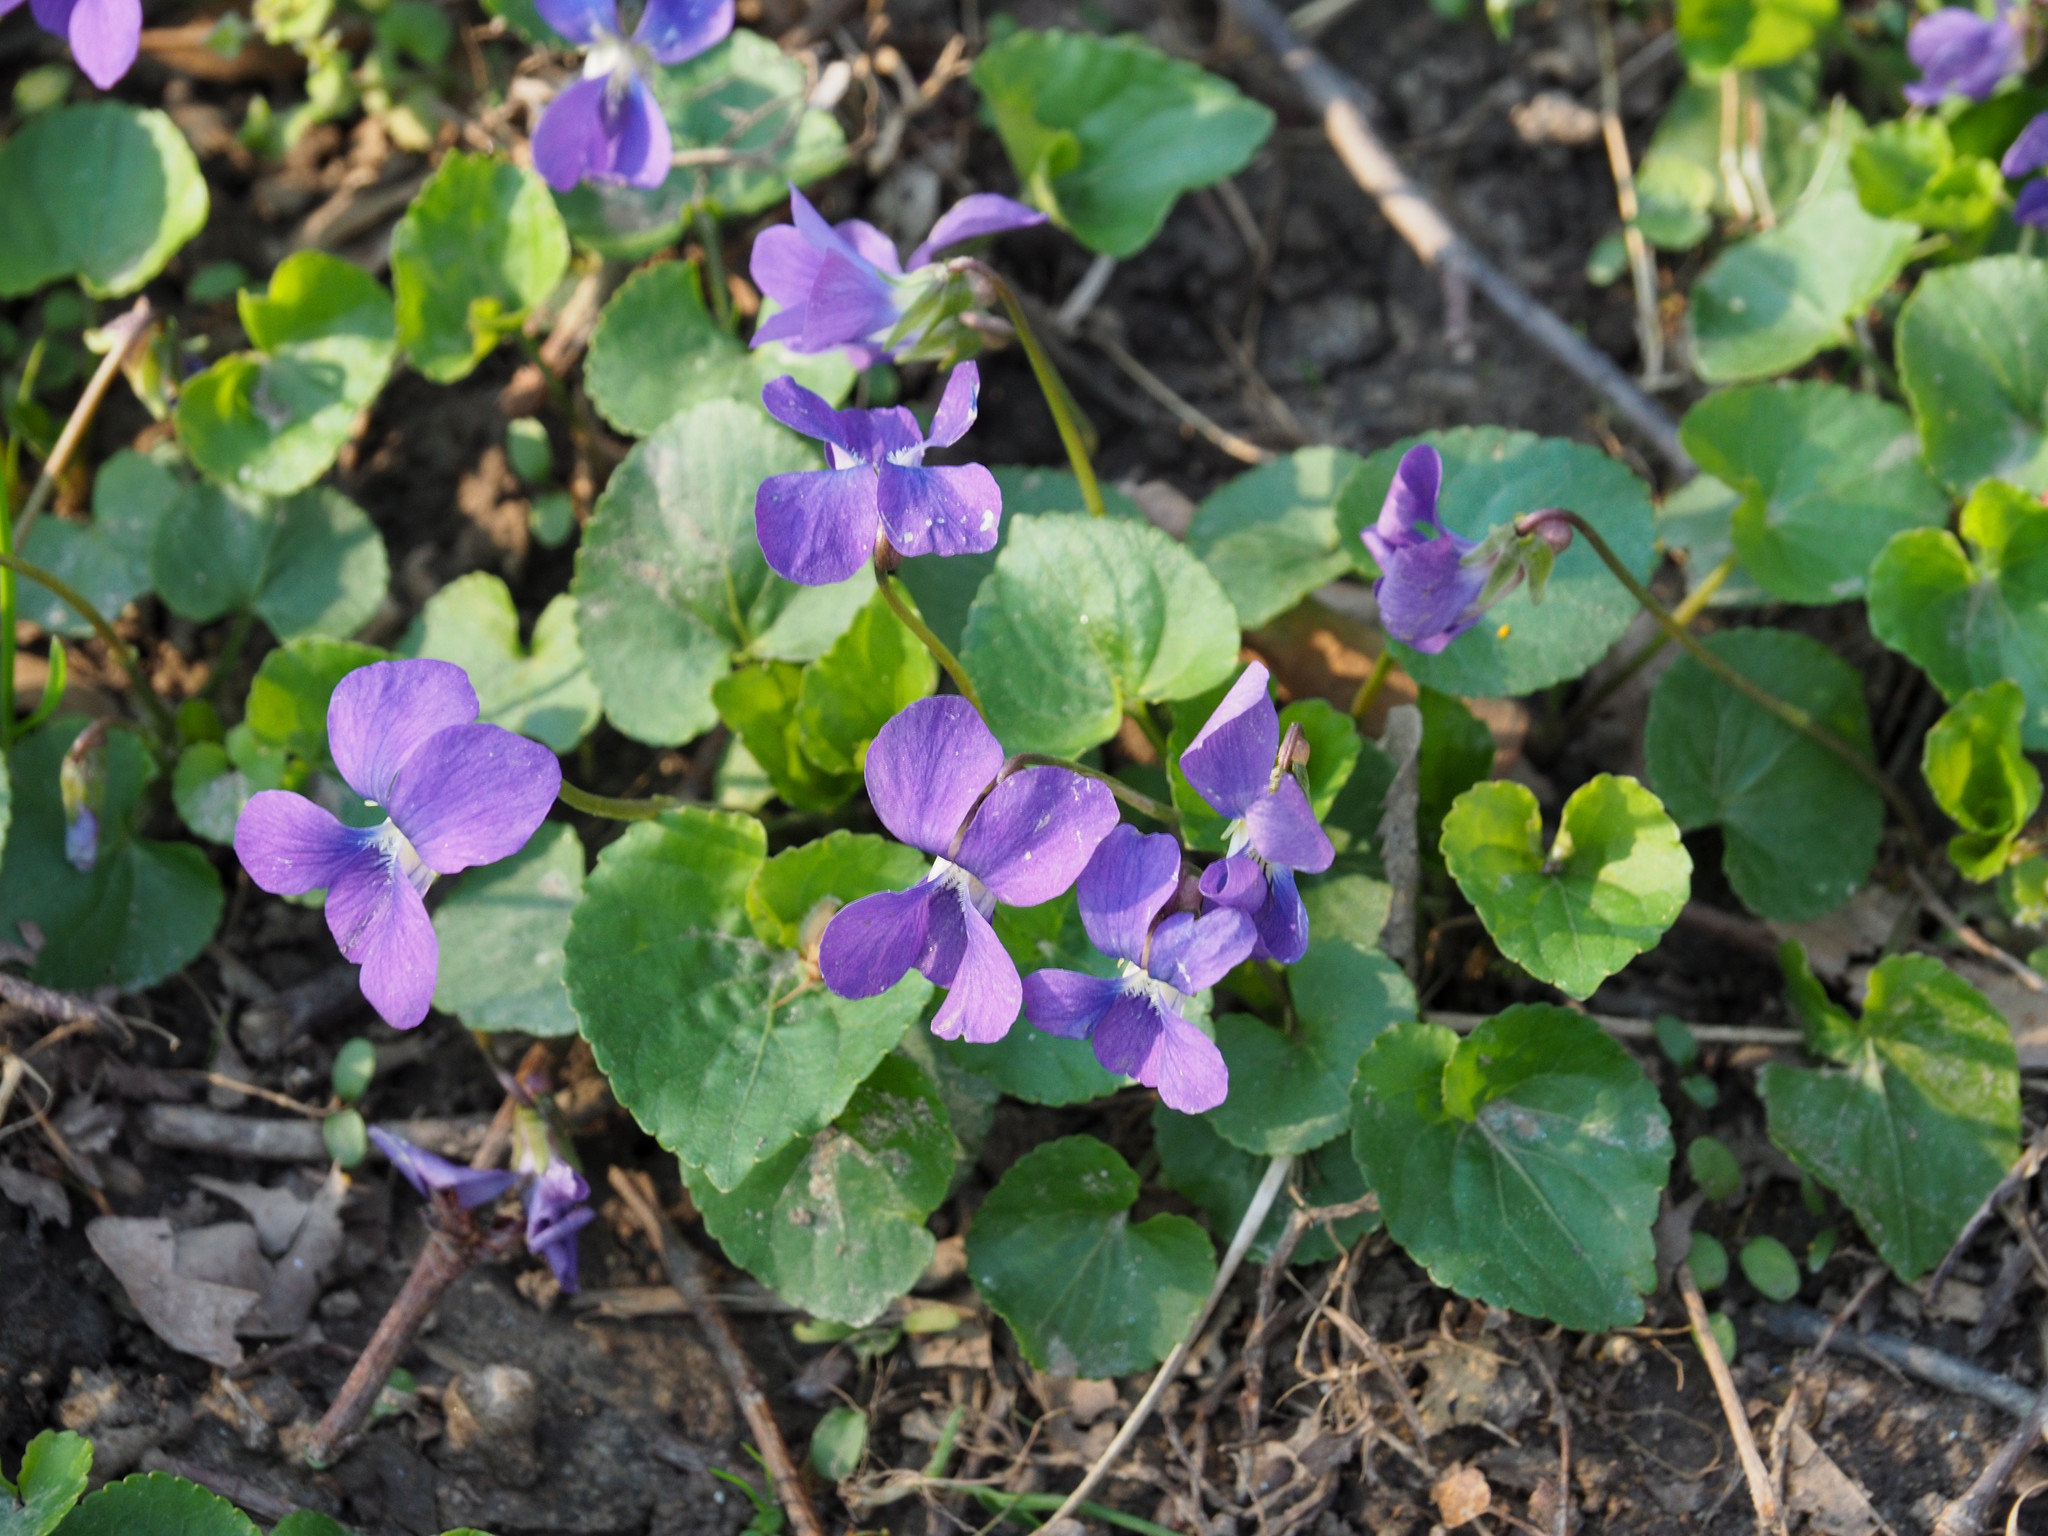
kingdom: Plantae
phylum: Tracheophyta
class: Magnoliopsida
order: Malpighiales
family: Violaceae
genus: Viola
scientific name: Viola sororia
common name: Dooryard violet
